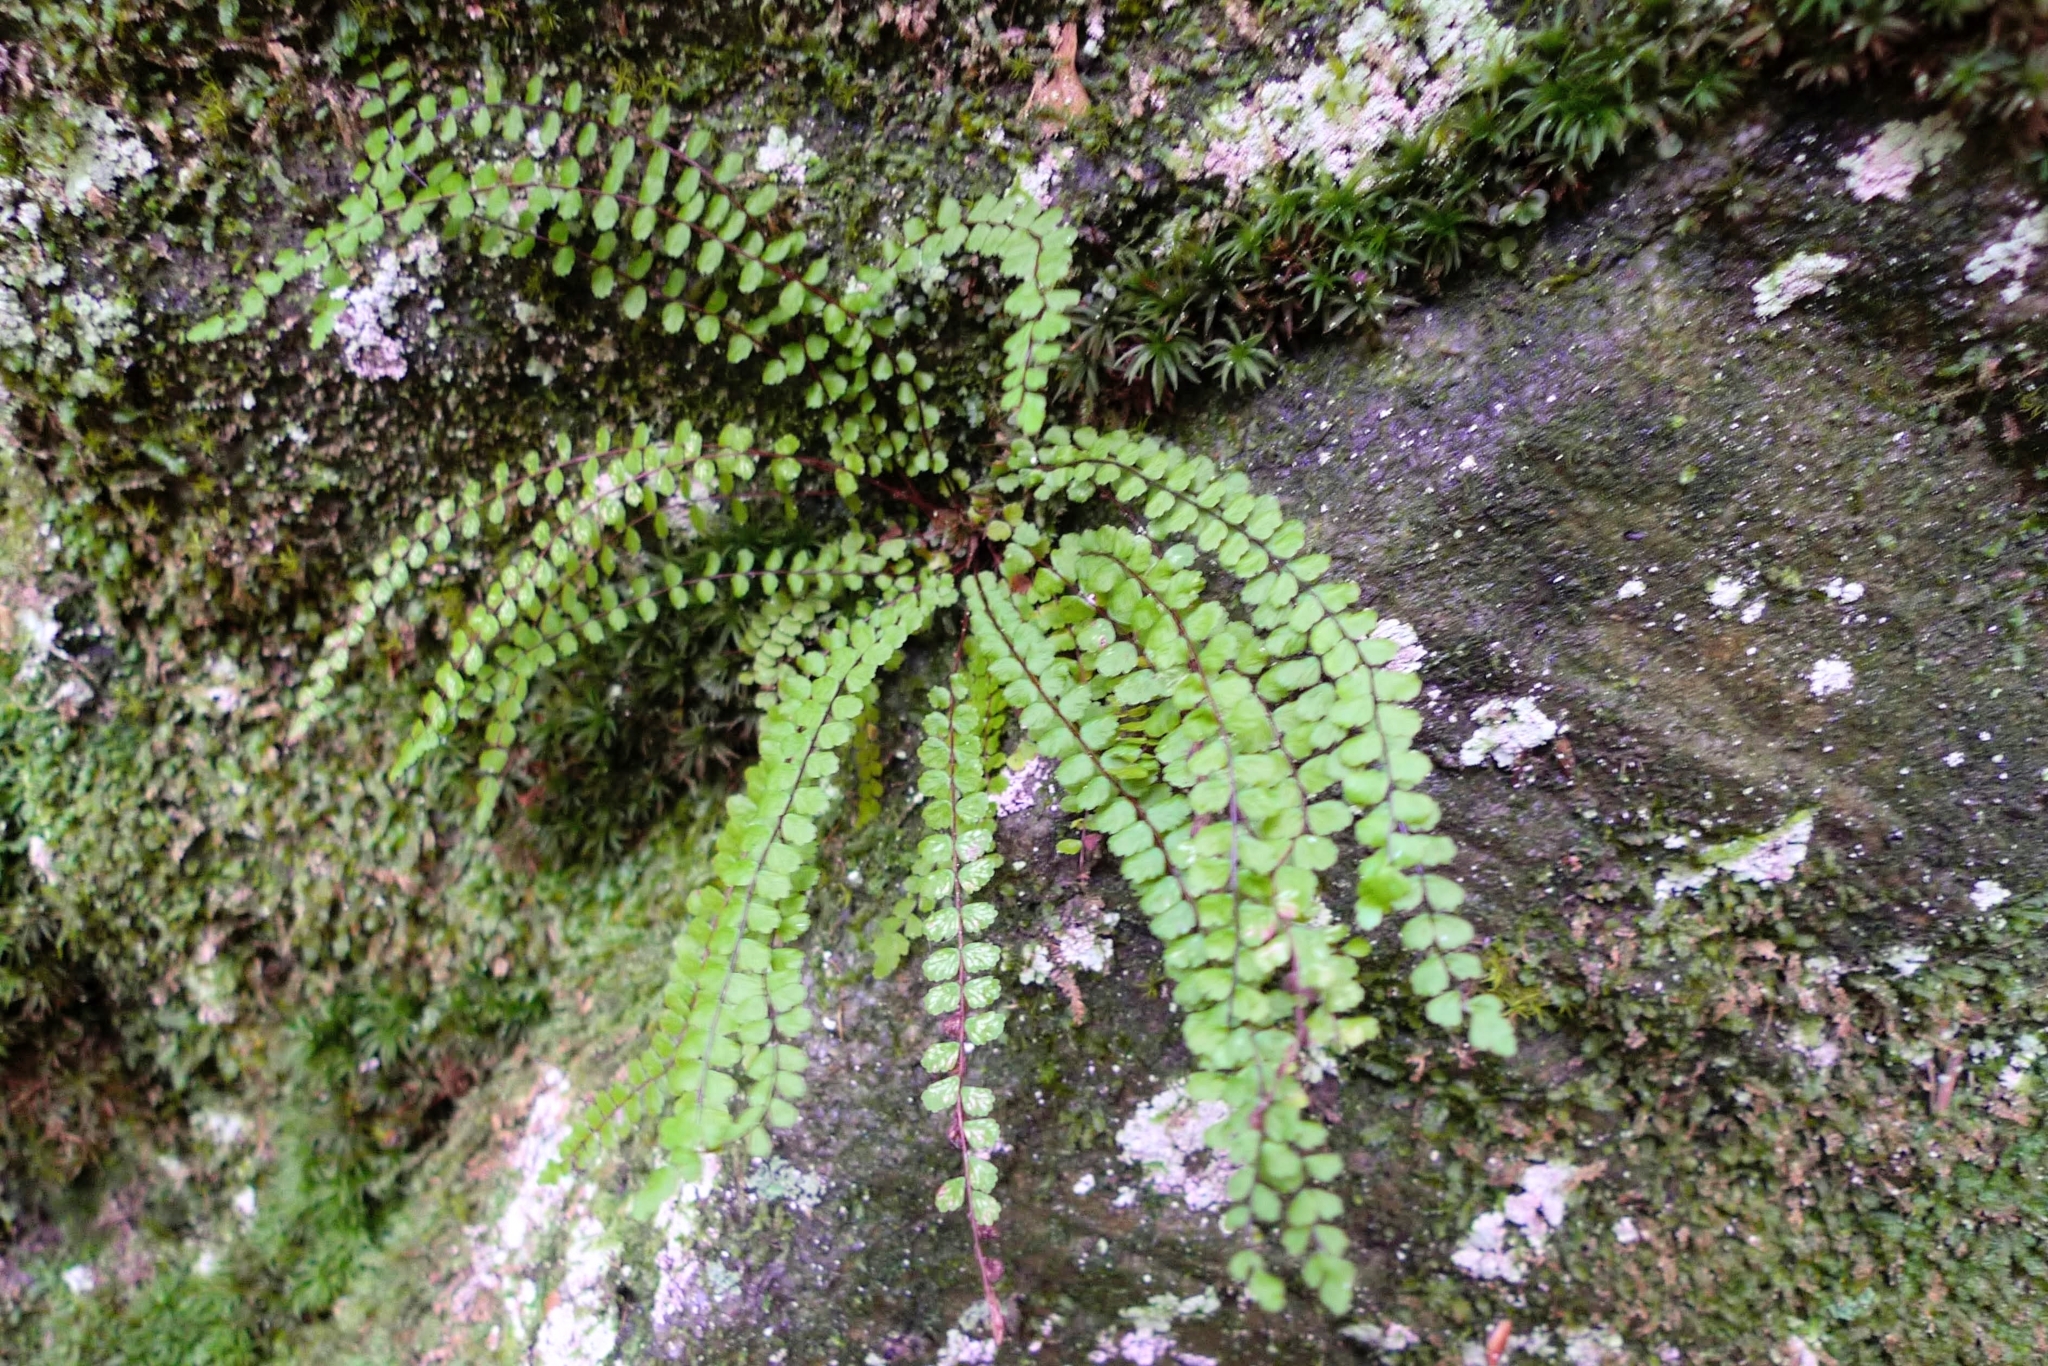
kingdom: Plantae
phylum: Tracheophyta
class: Polypodiopsida
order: Polypodiales
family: Aspleniaceae
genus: Asplenium
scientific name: Asplenium trichomanes
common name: Maidenhair spleenwort
